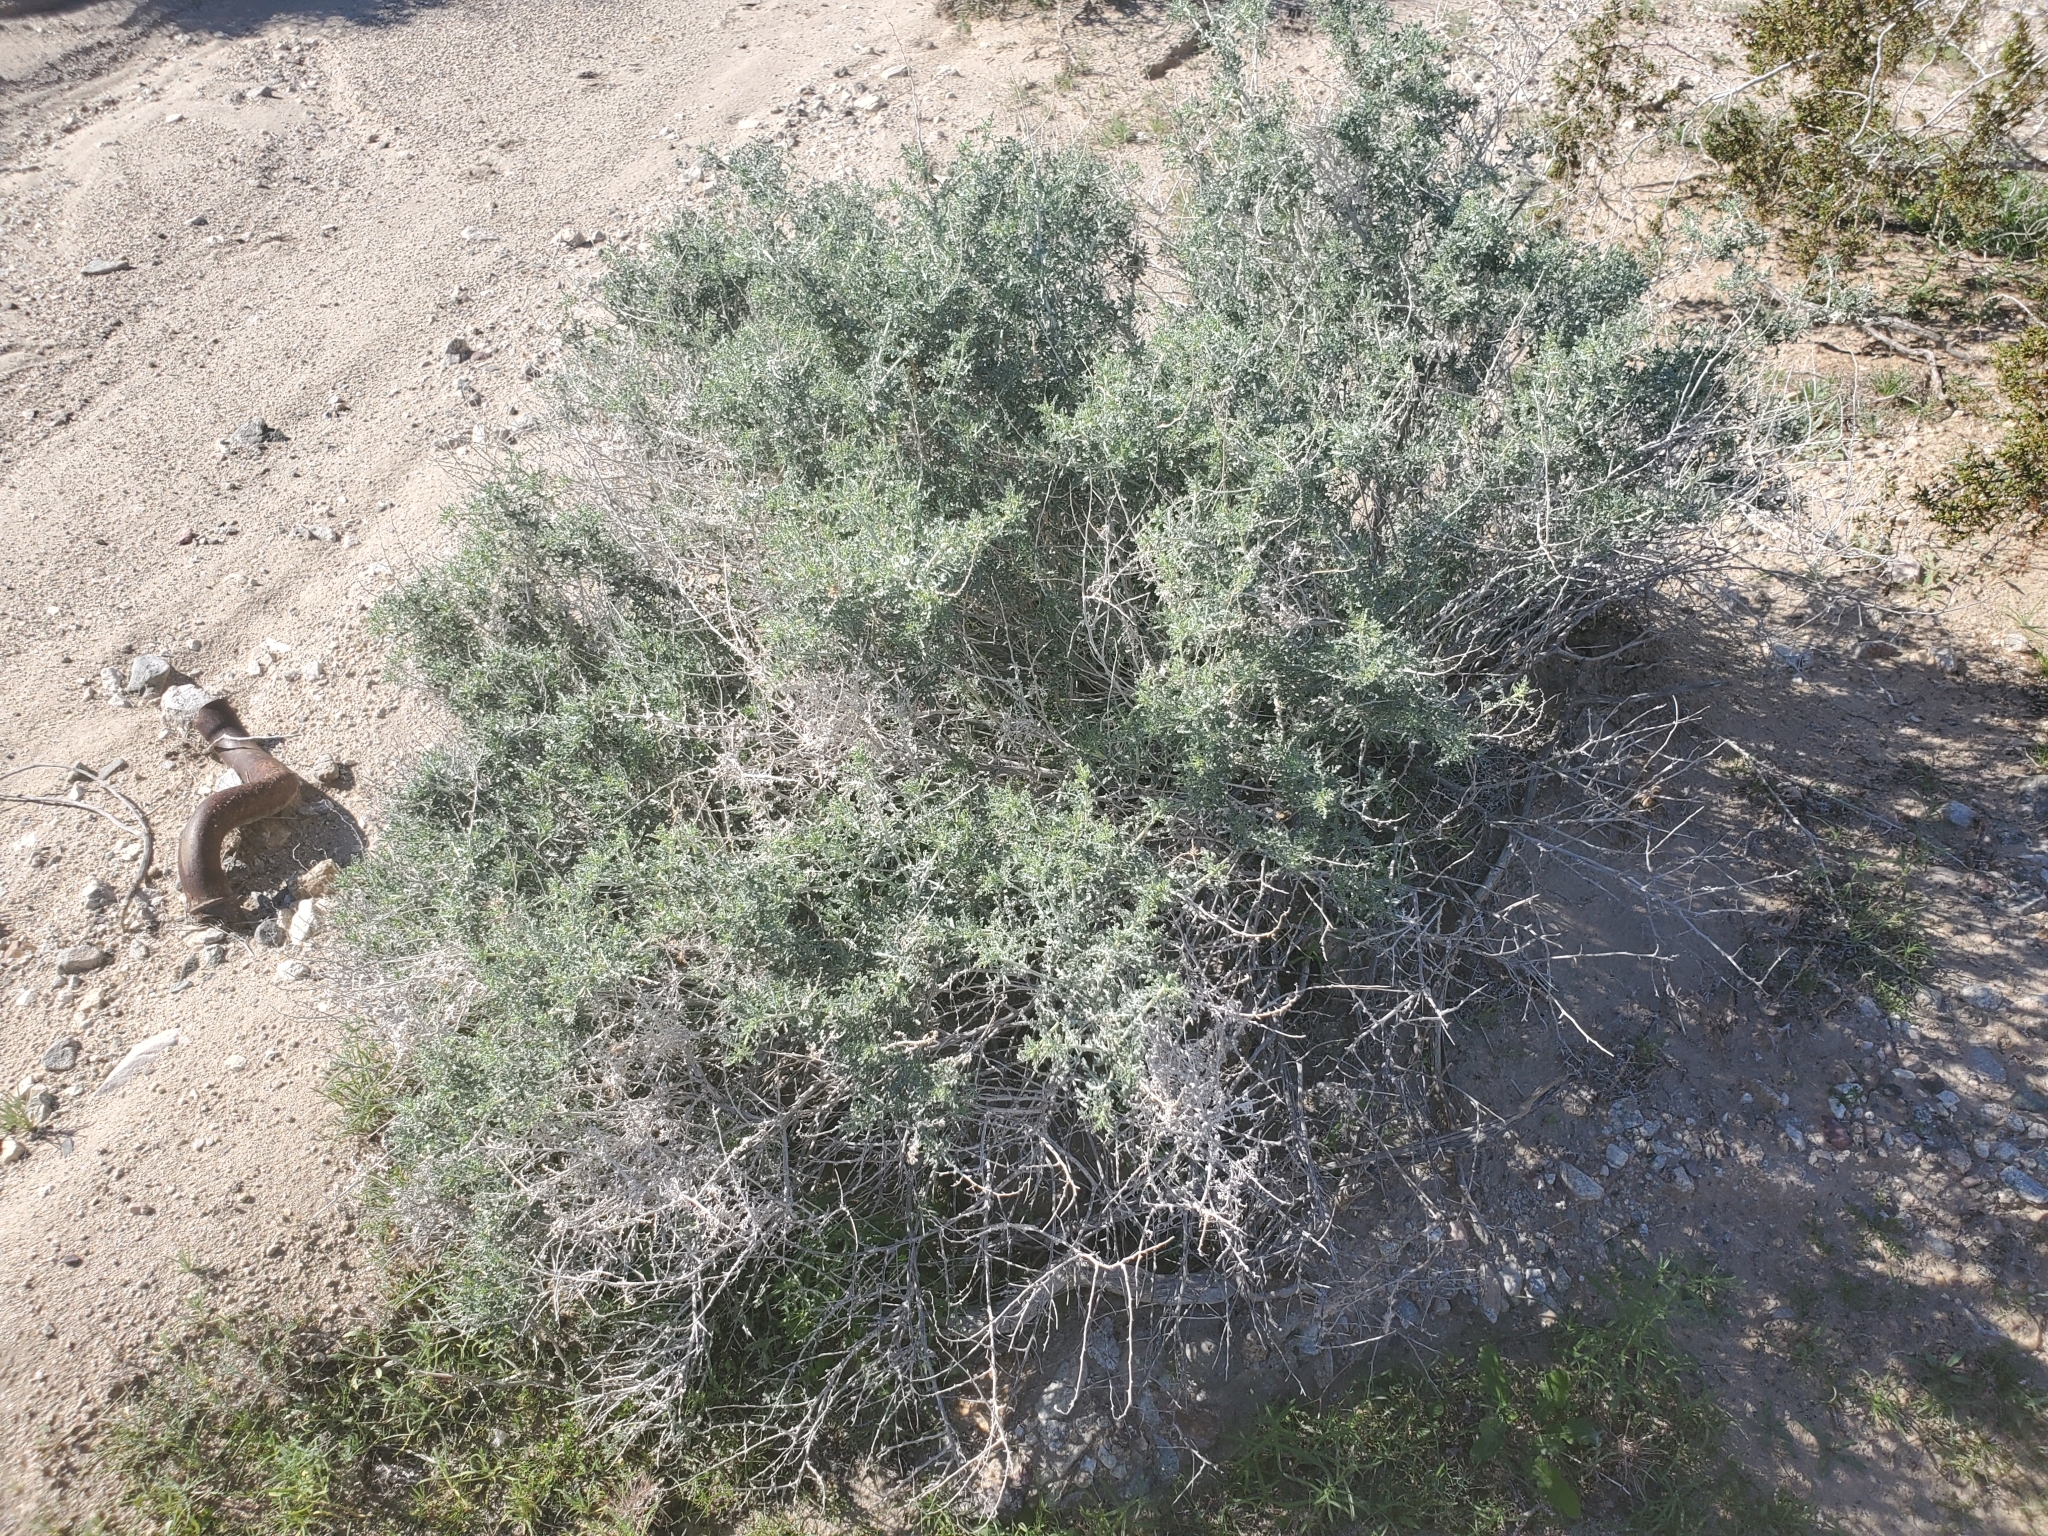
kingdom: Plantae
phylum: Tracheophyta
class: Magnoliopsida
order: Asterales
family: Asteraceae
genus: Ambrosia
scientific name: Ambrosia dumosa
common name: Bur-sage
